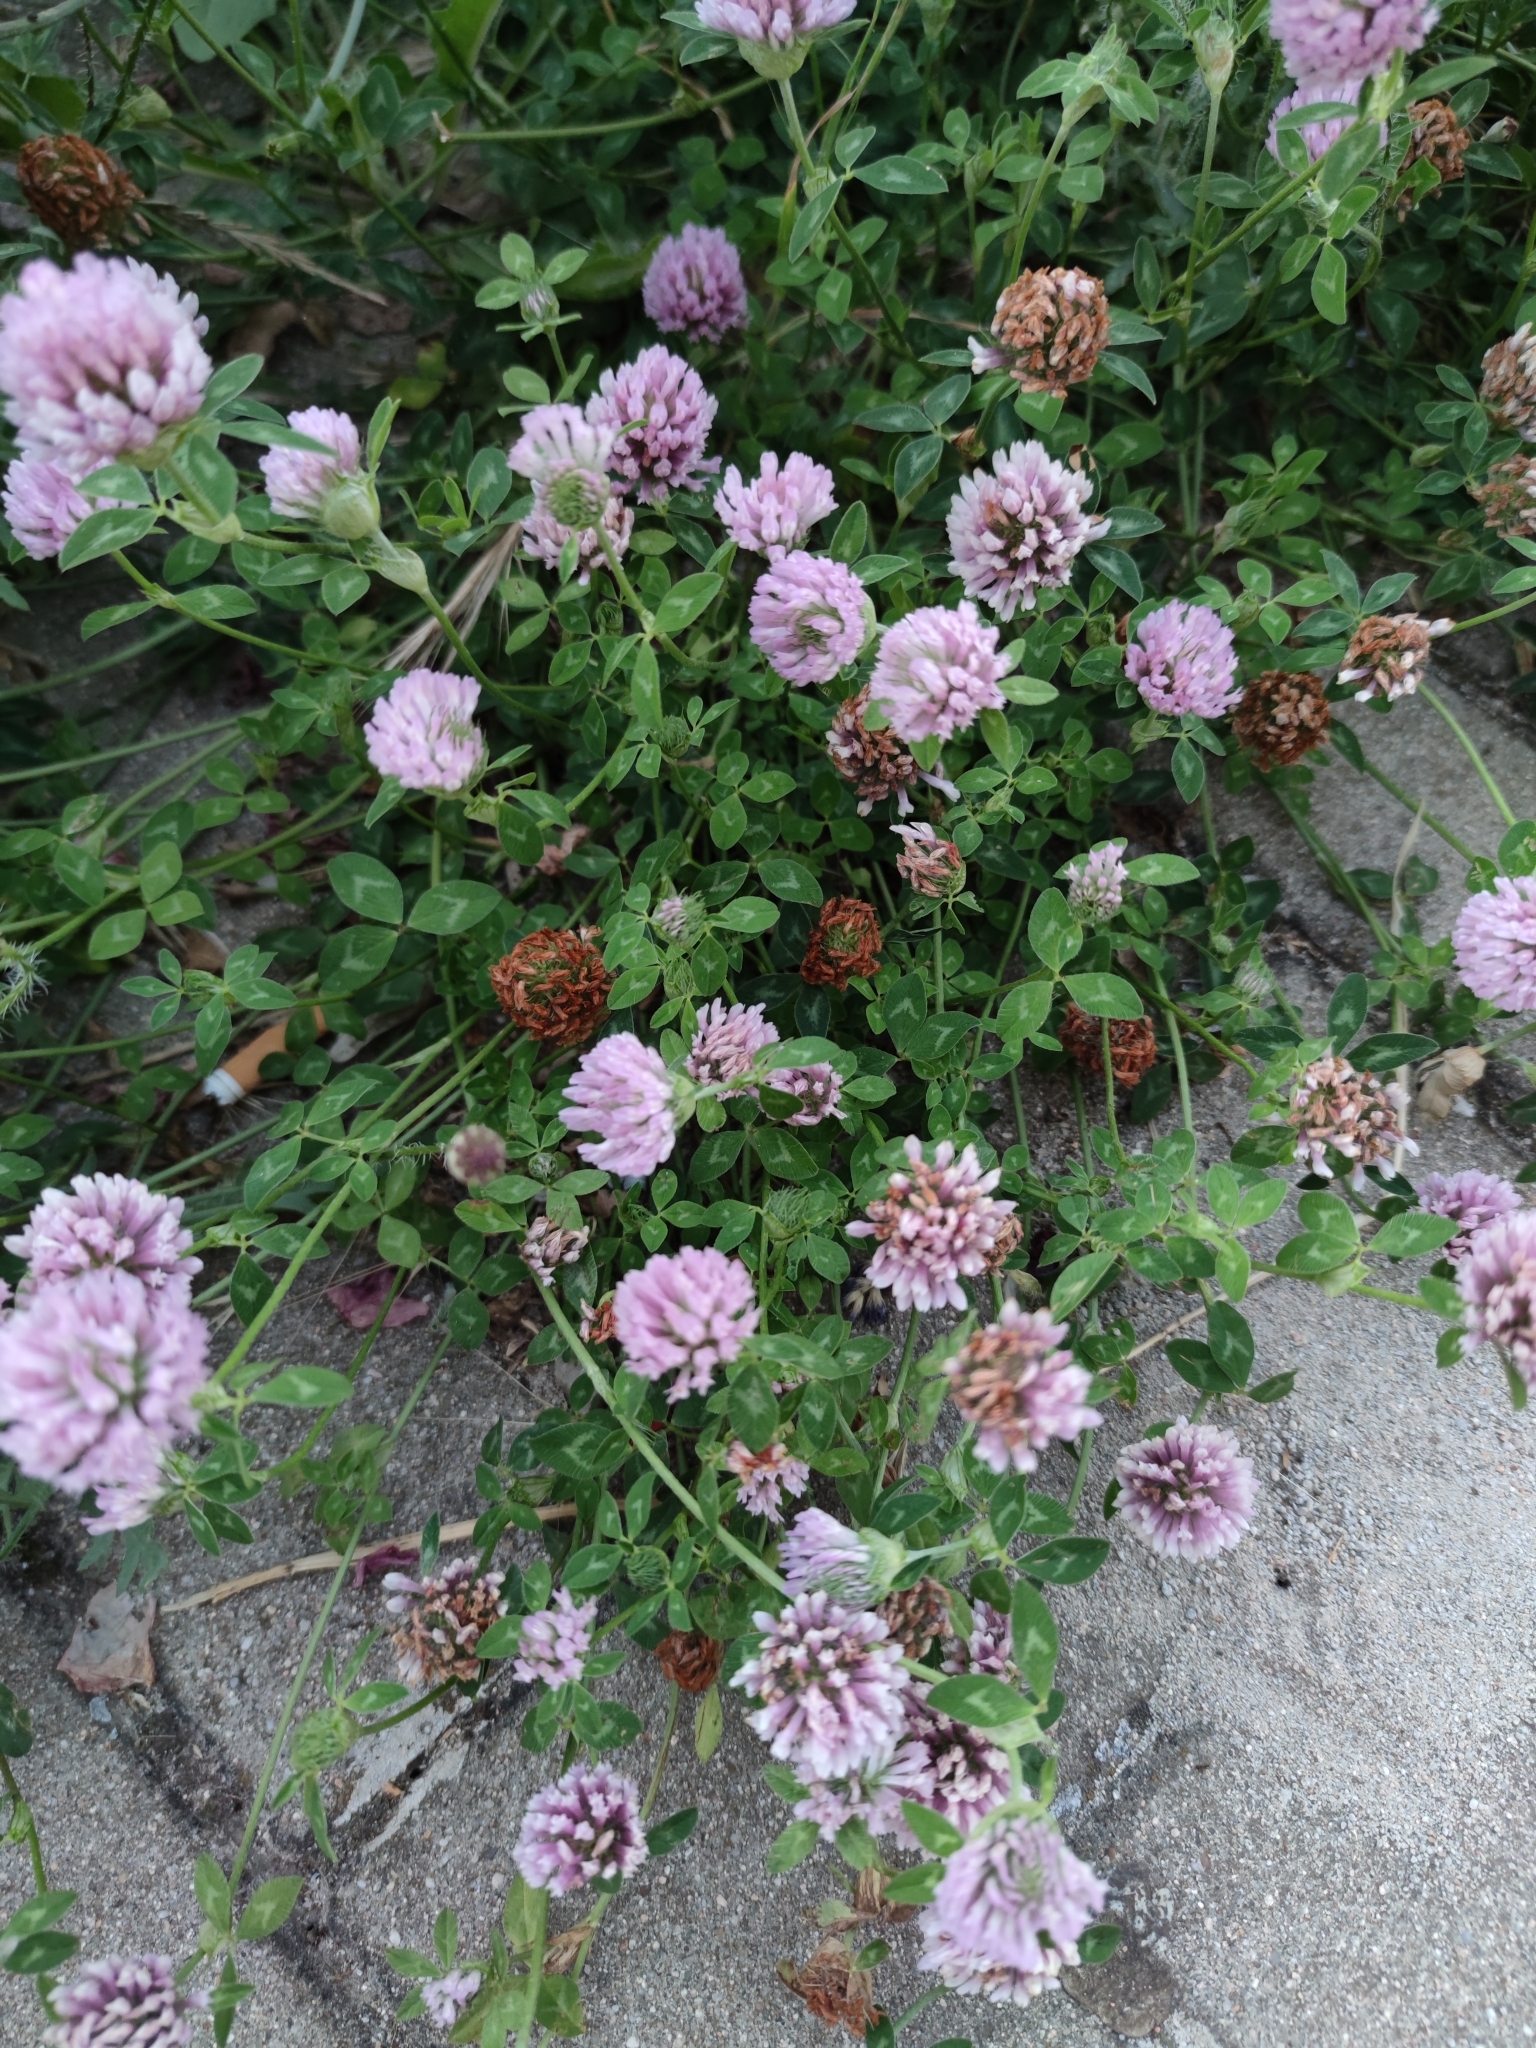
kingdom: Plantae
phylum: Tracheophyta
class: Magnoliopsida
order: Fabales
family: Fabaceae
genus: Trifolium
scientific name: Trifolium pratense
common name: Red clover
